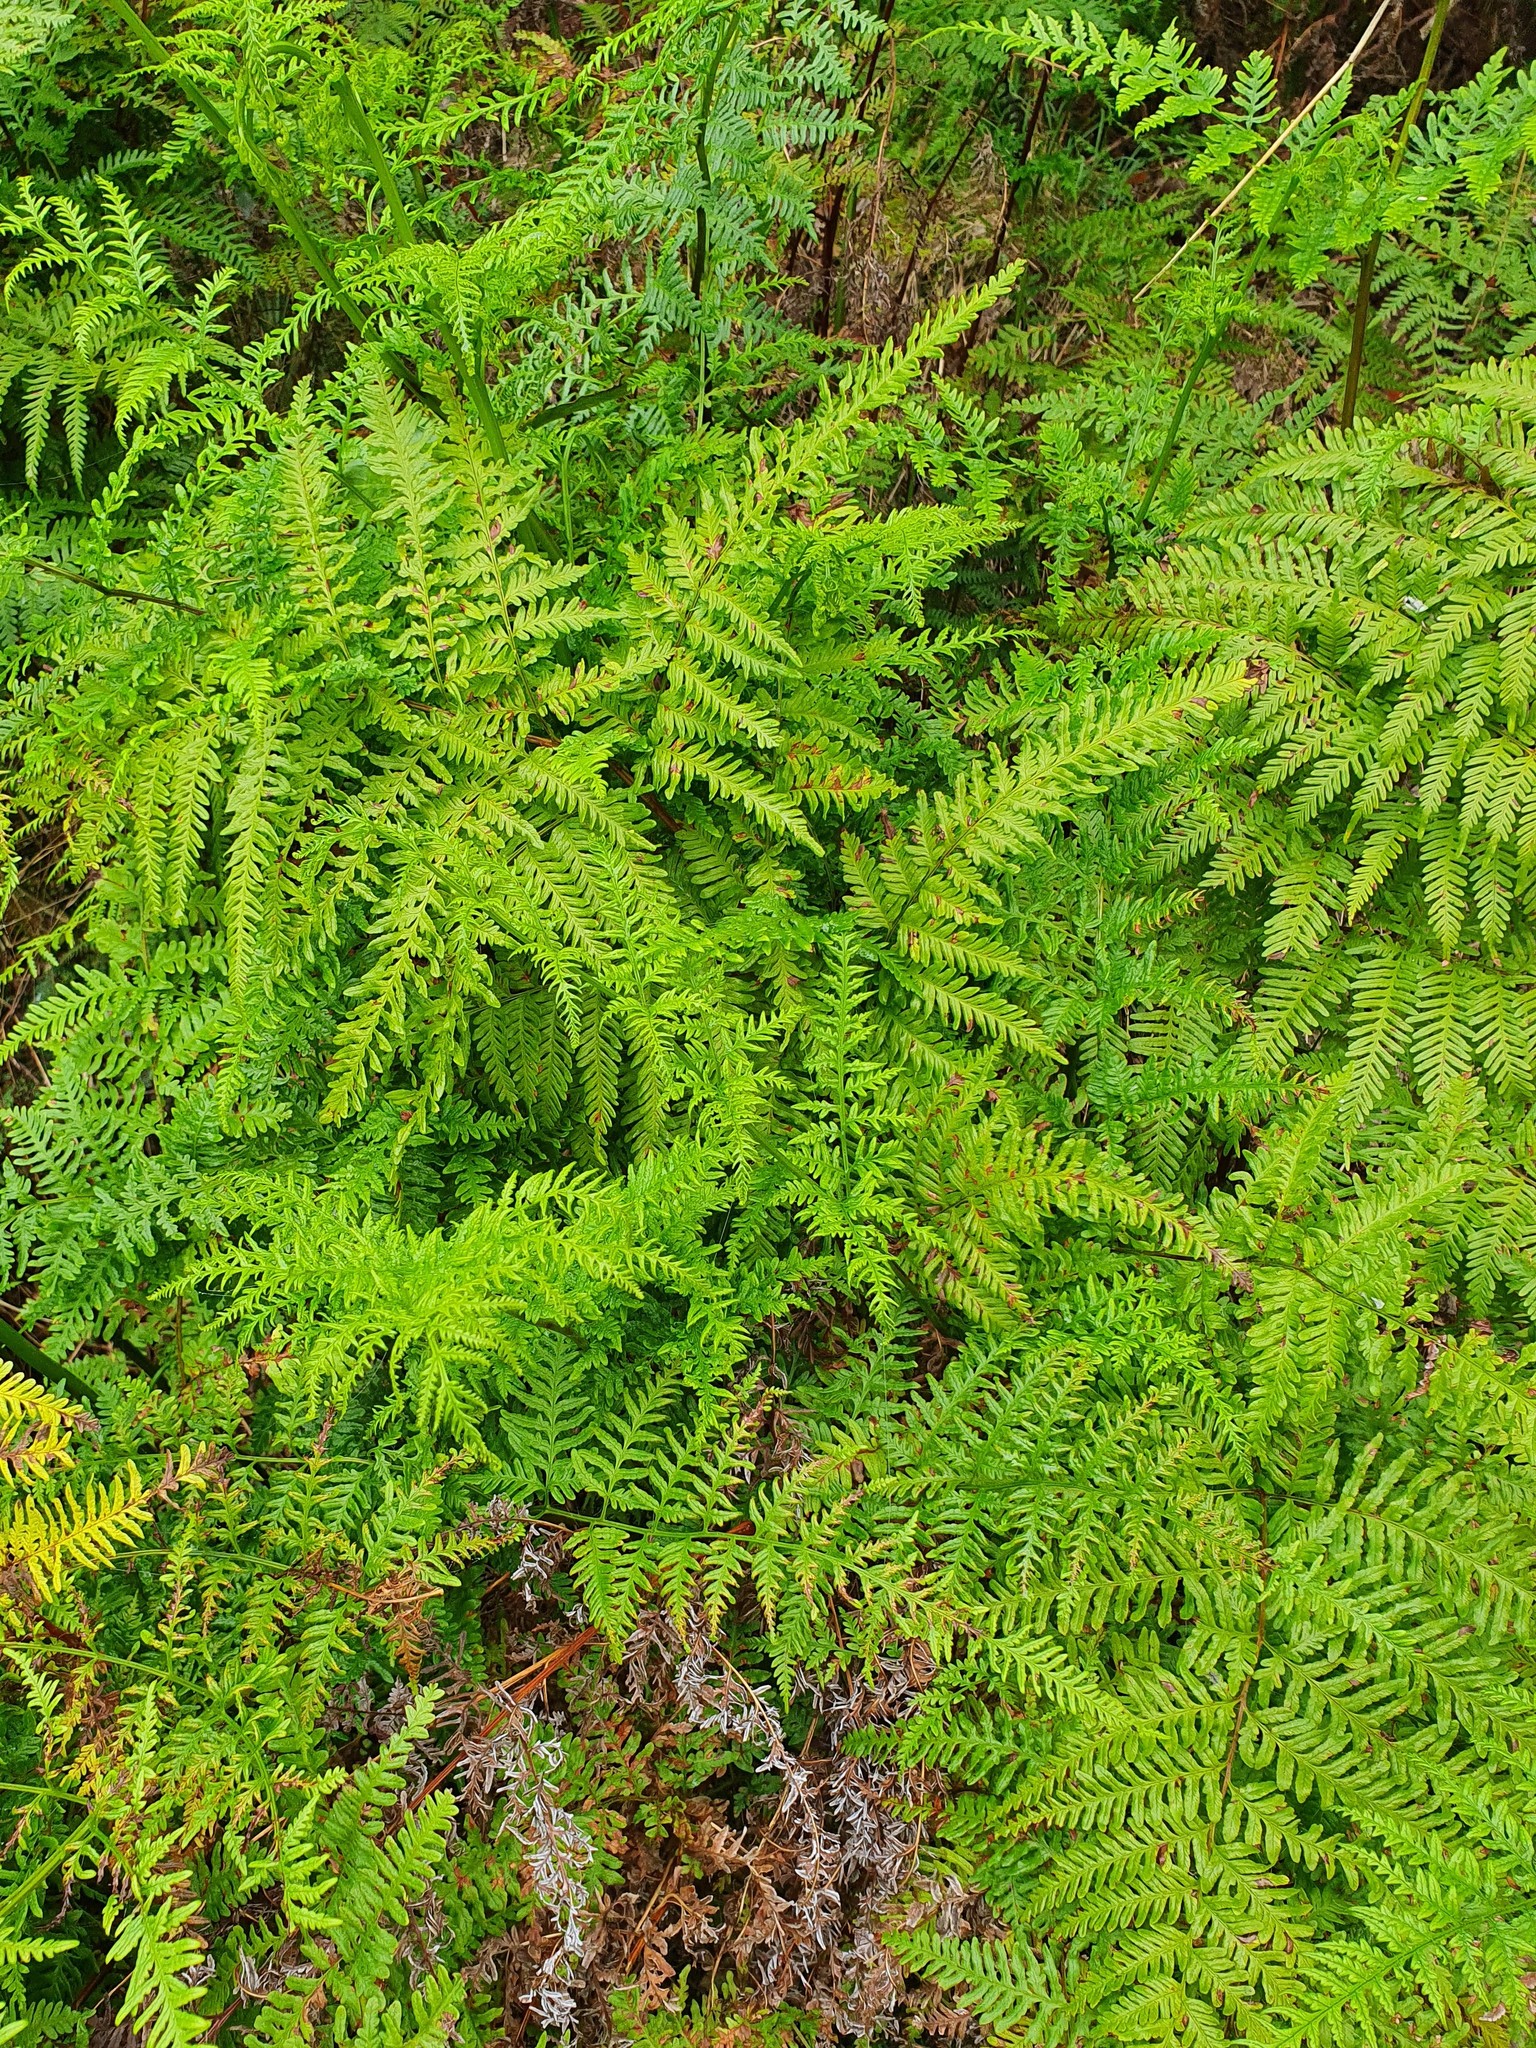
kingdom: Plantae
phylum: Tracheophyta
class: Polypodiopsida
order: Polypodiales
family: Pteridaceae
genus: Pteris
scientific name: Pteris tremula
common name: Australian brake
